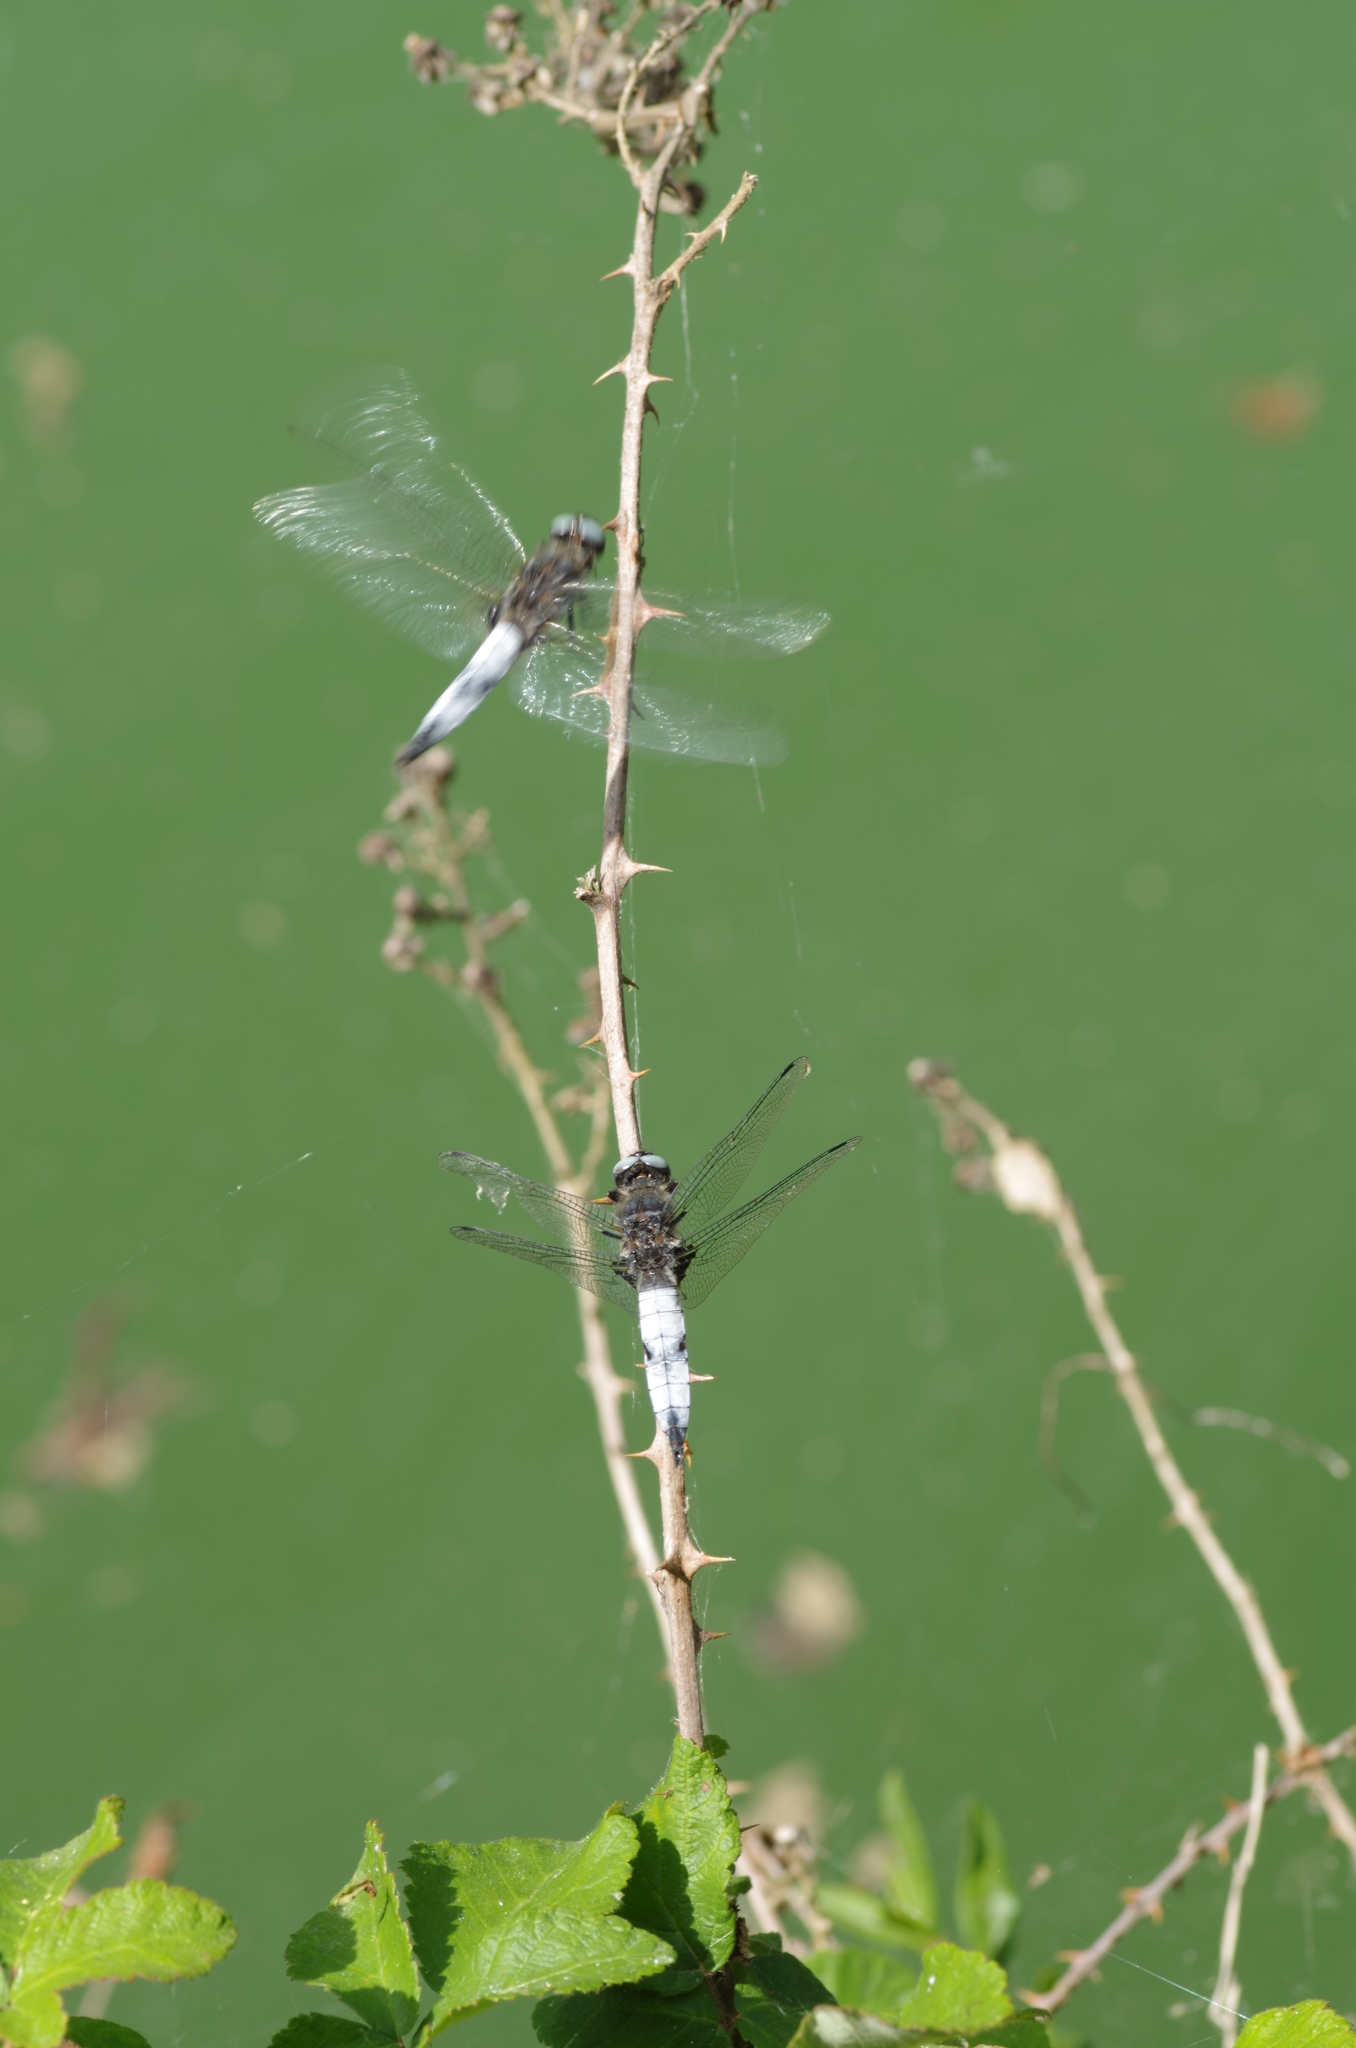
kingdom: Animalia
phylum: Arthropoda
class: Insecta
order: Odonata
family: Libellulidae
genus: Libellula
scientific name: Libellula fulva
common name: Blue chaser
